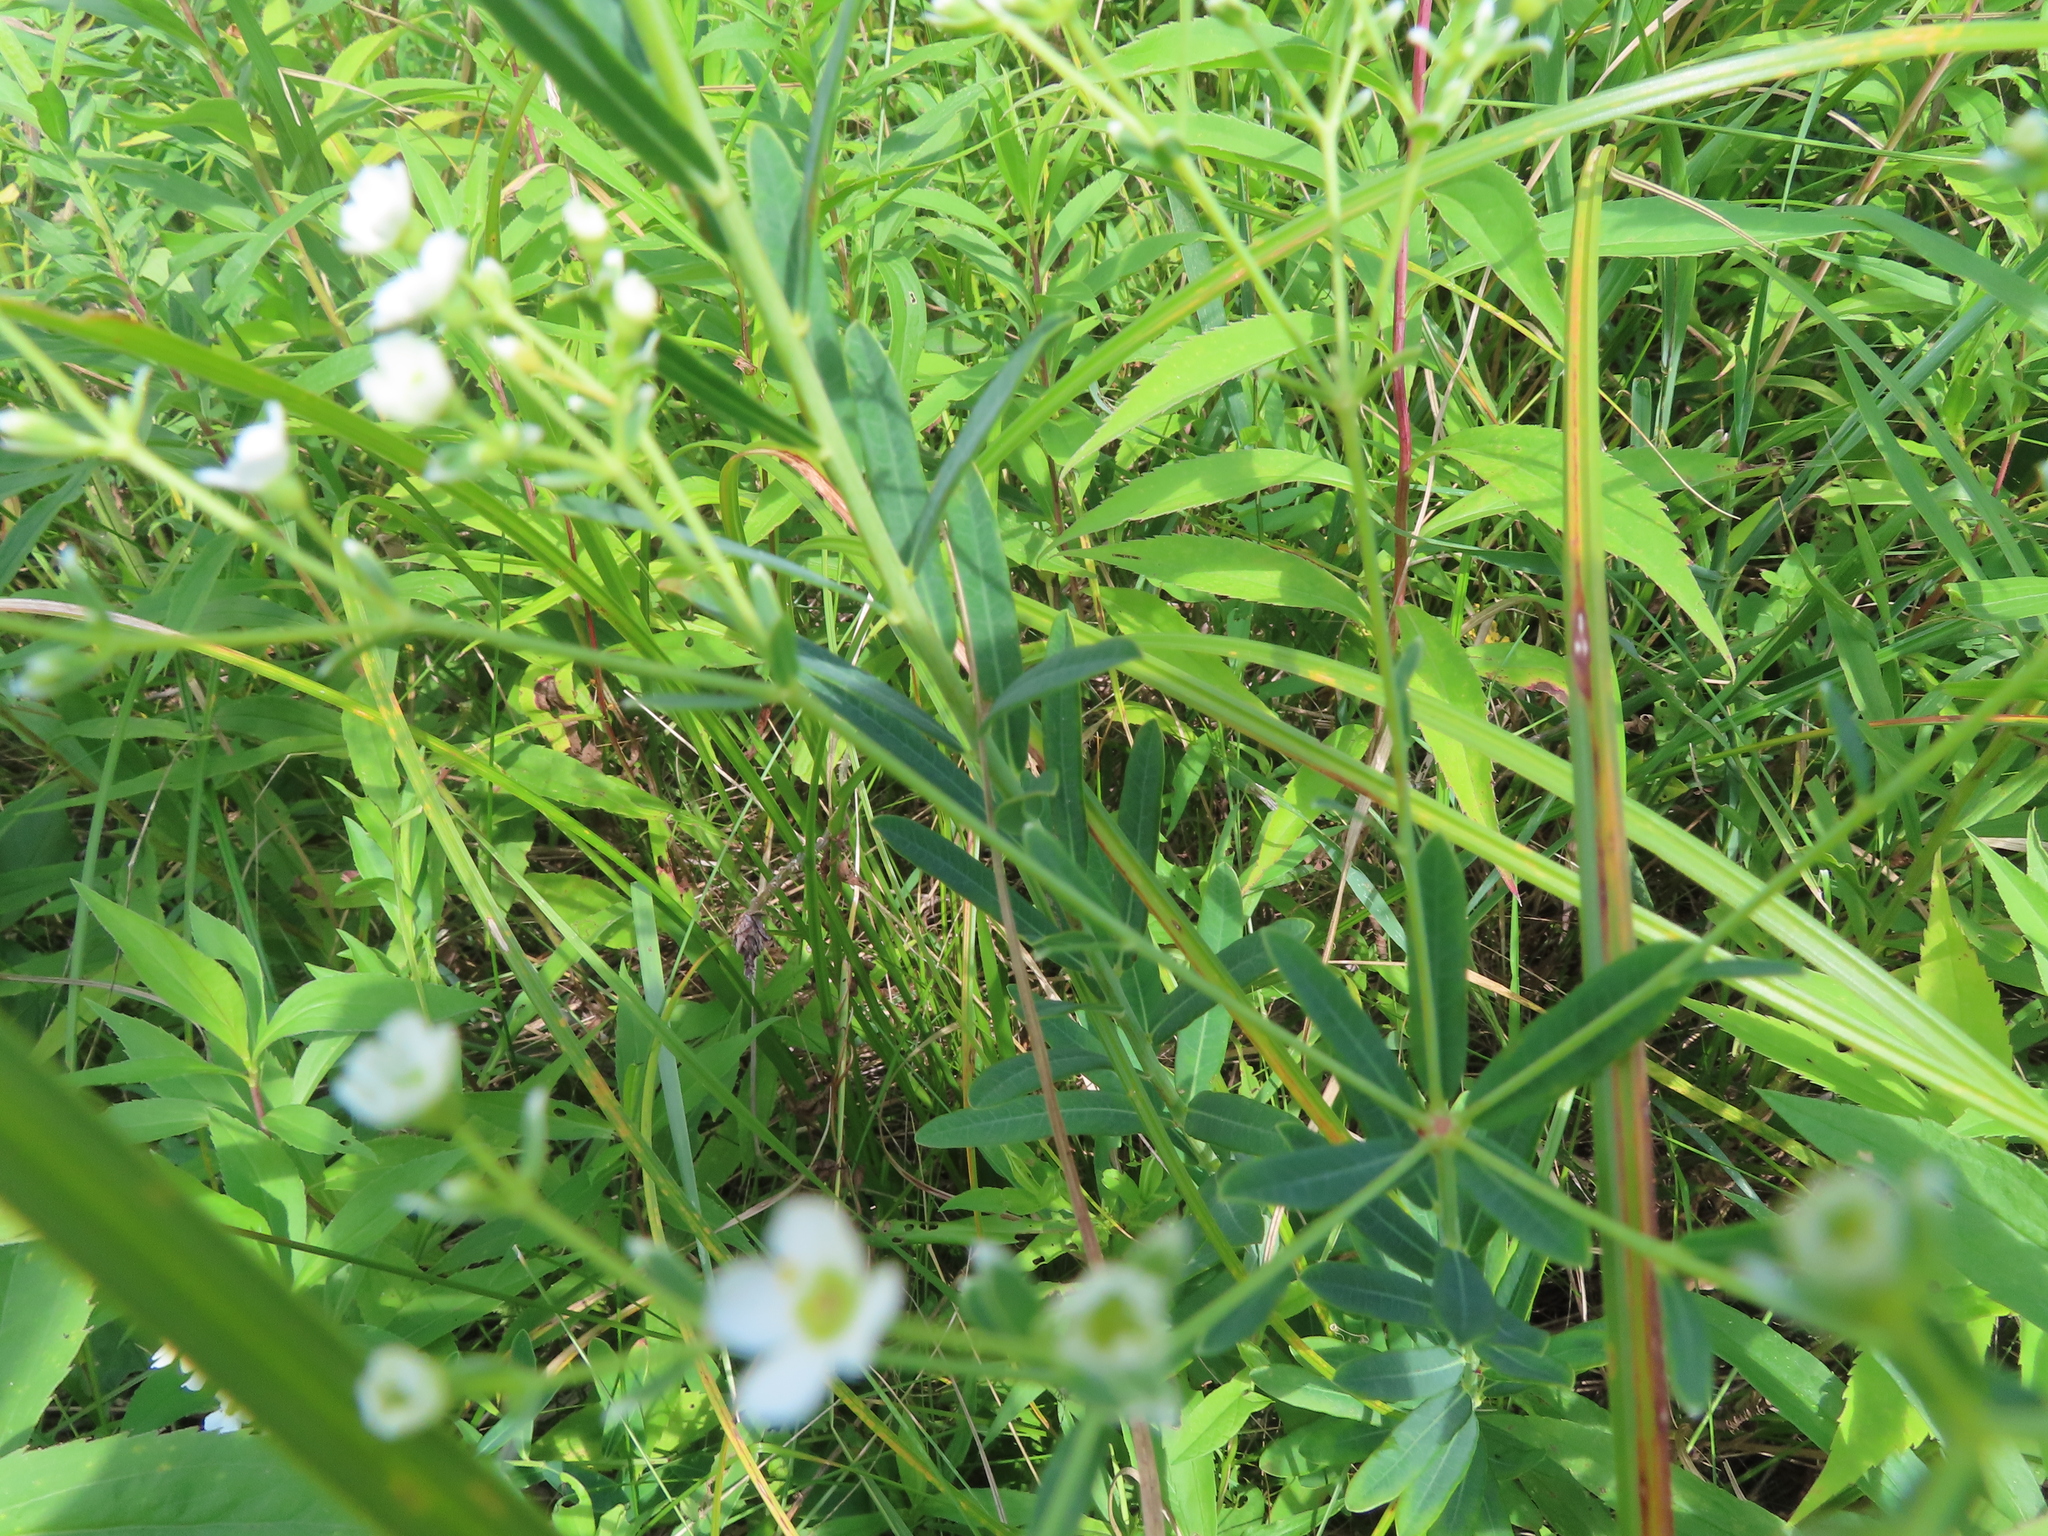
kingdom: Plantae
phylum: Tracheophyta
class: Magnoliopsida
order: Malpighiales
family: Euphorbiaceae
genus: Euphorbia
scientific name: Euphorbia corollata
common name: Flowering spurge
